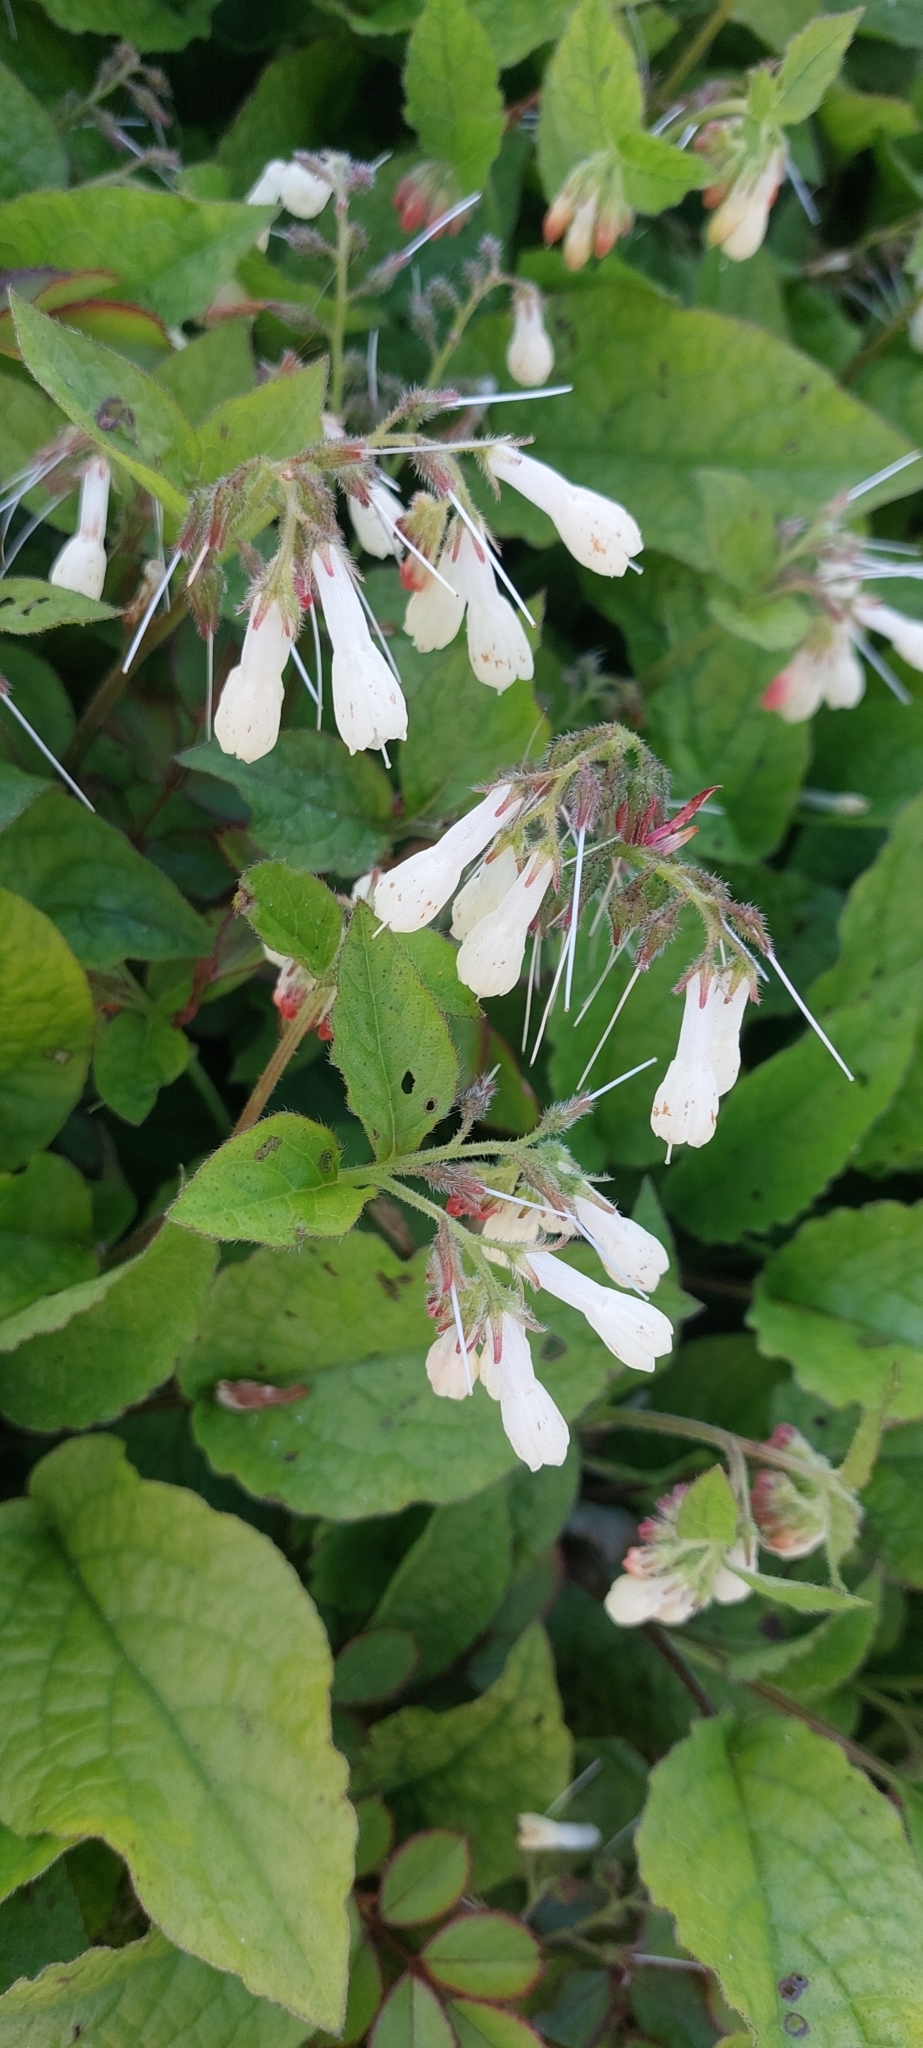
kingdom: Plantae
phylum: Tracheophyta
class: Magnoliopsida
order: Boraginales
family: Boraginaceae
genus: Symphytum
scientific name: Symphytum grandiflorum
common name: Creeping comfrey
